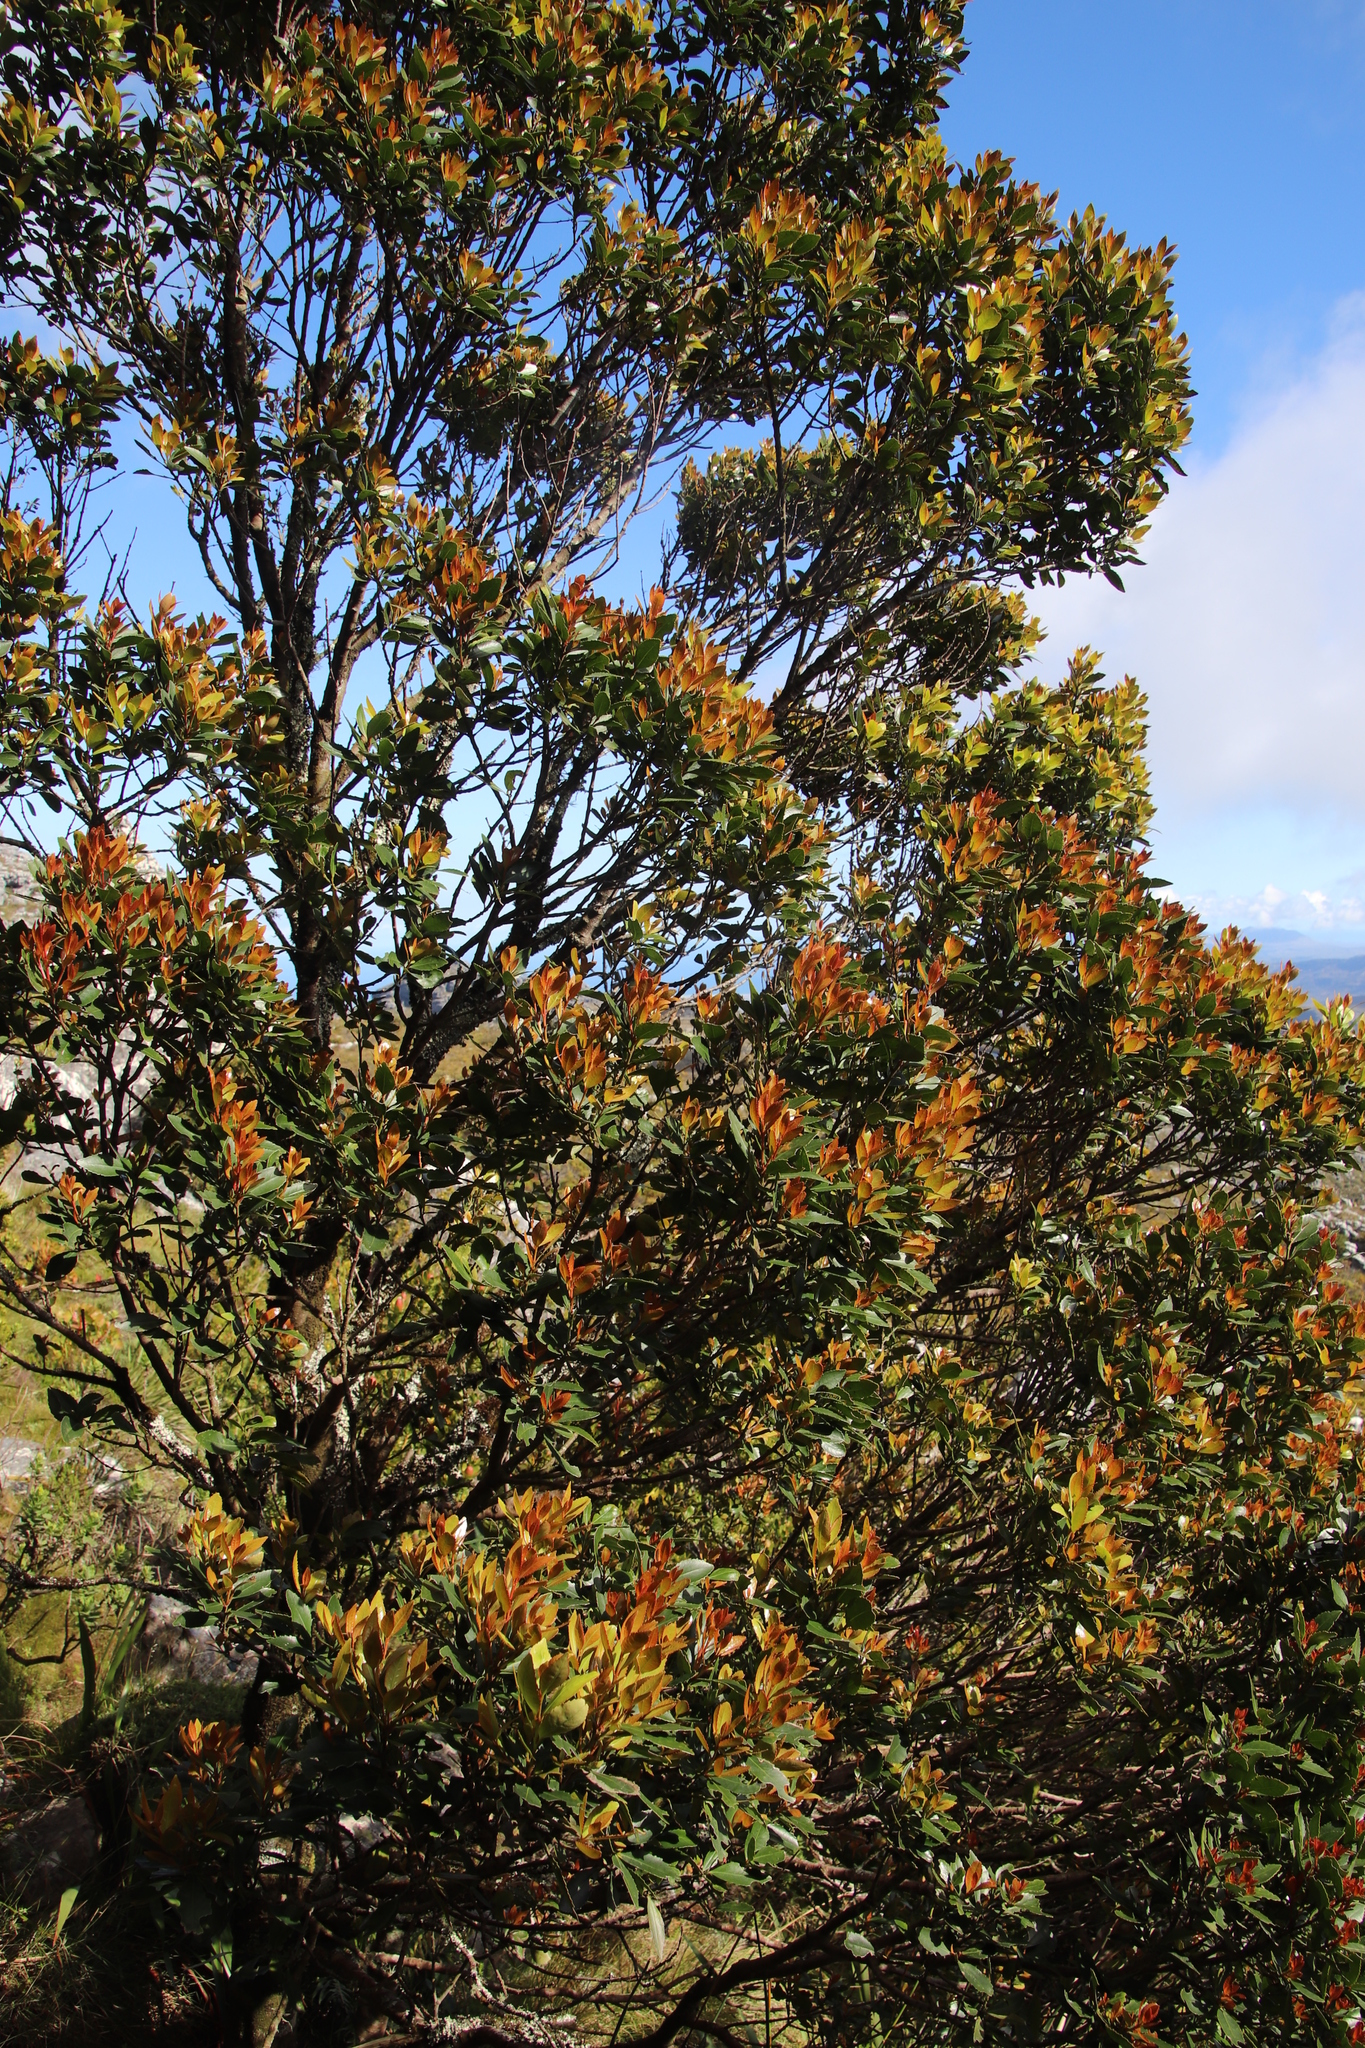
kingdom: Plantae
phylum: Tracheophyta
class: Magnoliopsida
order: Celastrales
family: Celastraceae
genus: Elaeodendron
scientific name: Elaeodendron schinoides
